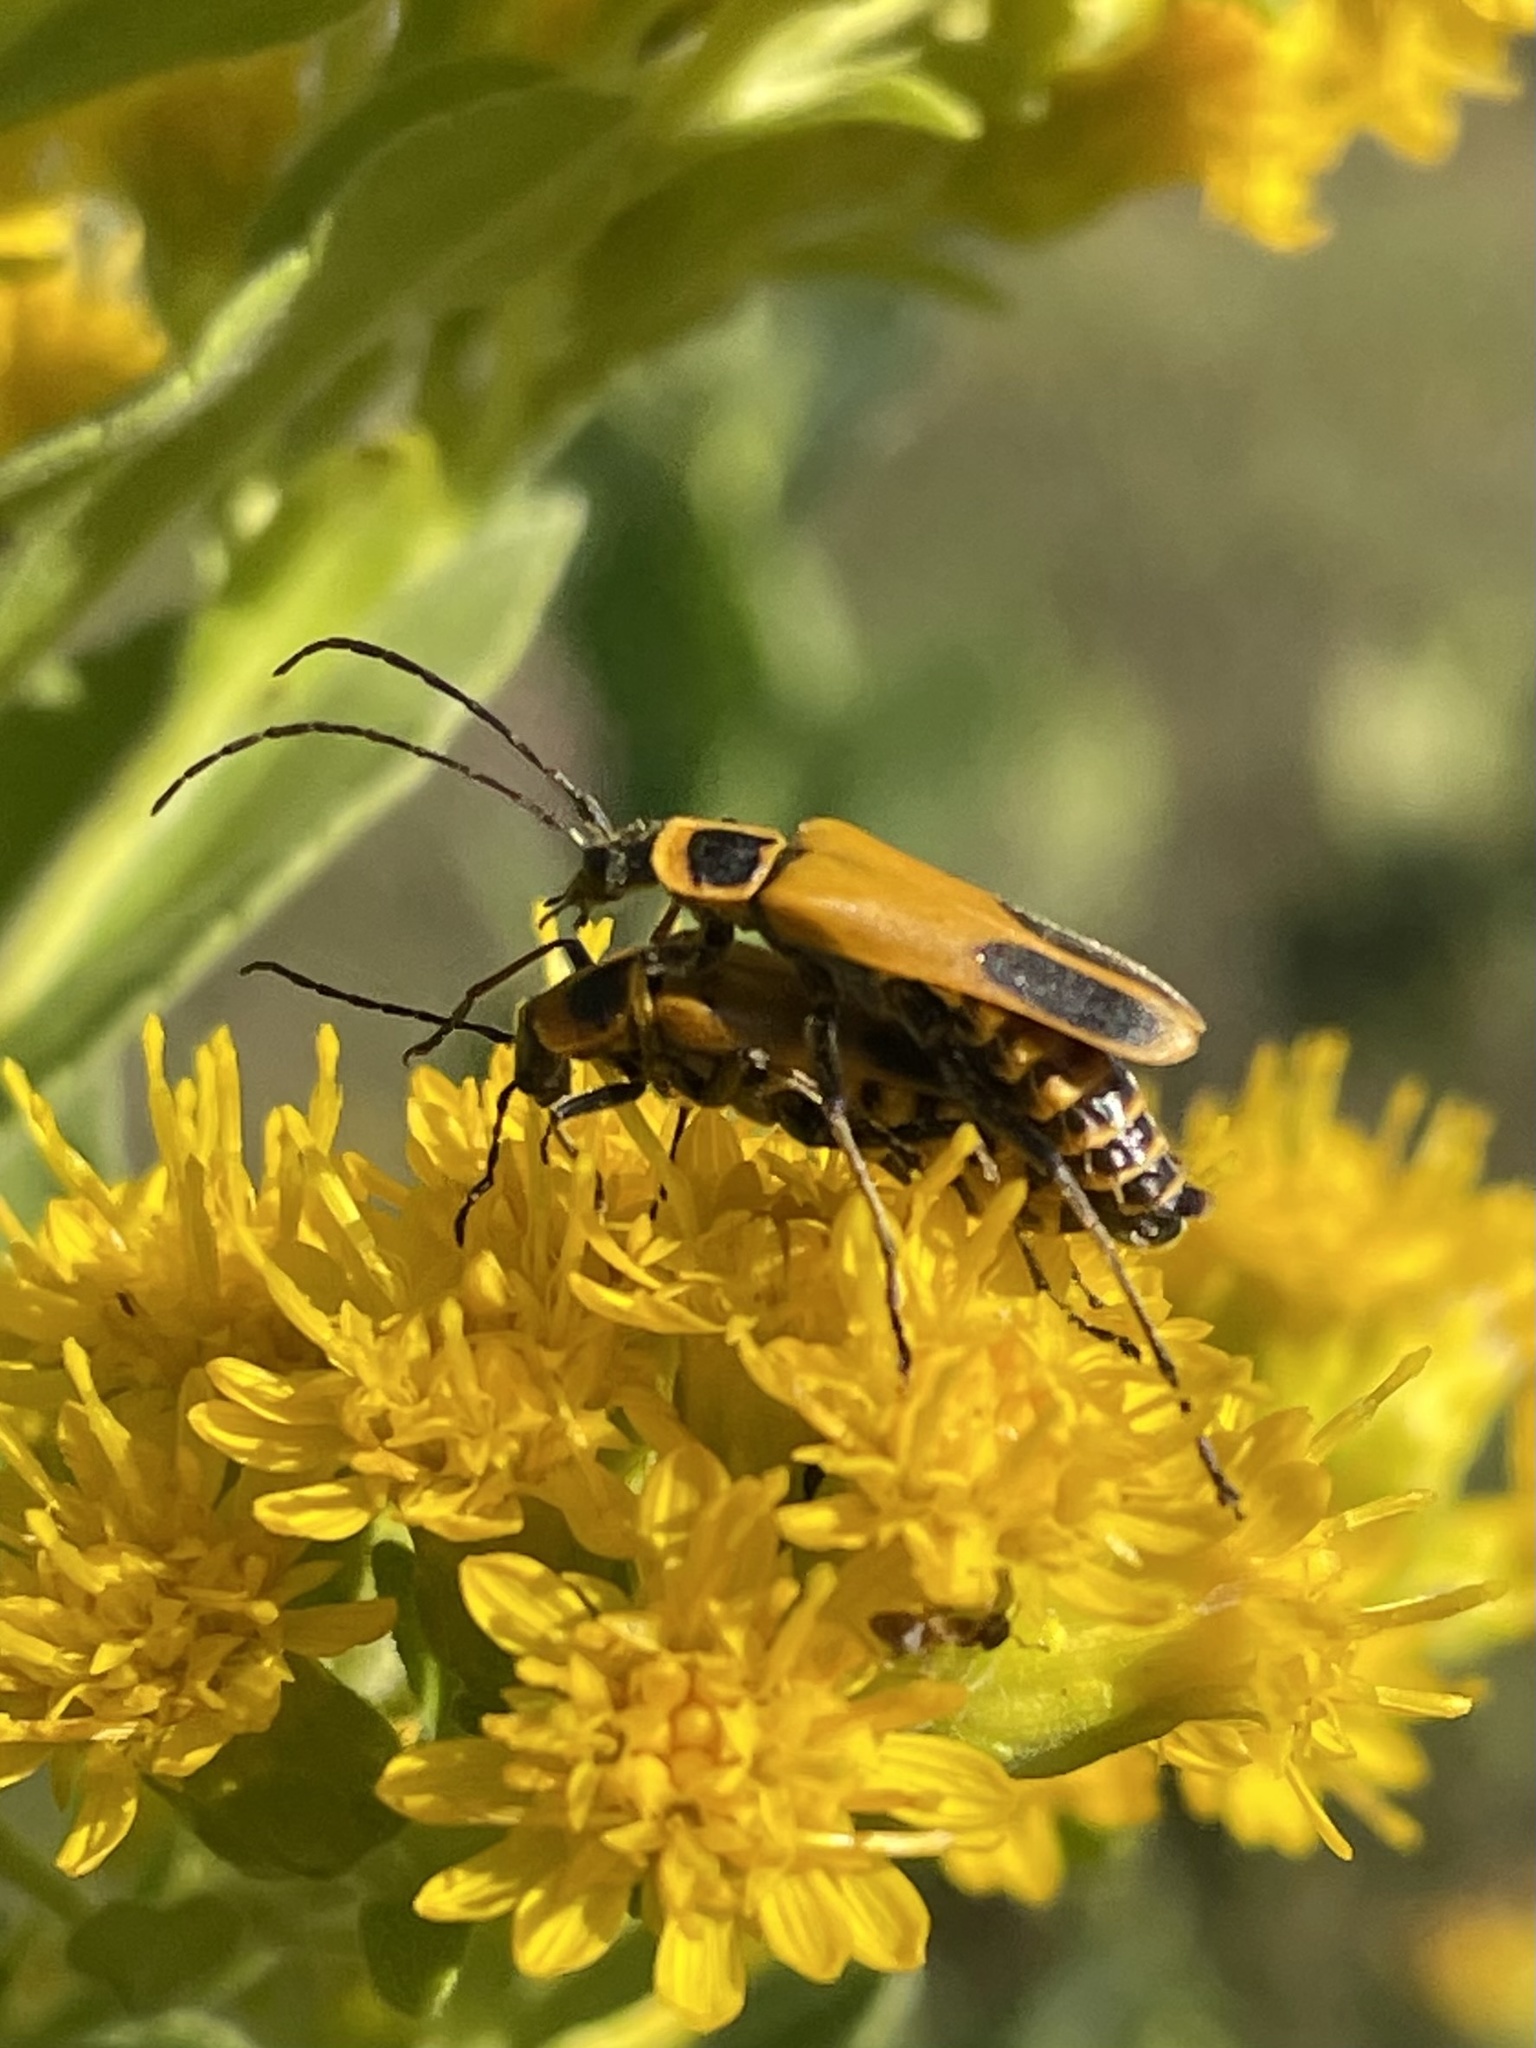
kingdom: Animalia
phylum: Arthropoda
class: Insecta
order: Coleoptera
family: Cantharidae
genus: Chauliognathus
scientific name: Chauliognathus pensylvanicus
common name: Goldenrod soldier beetle
